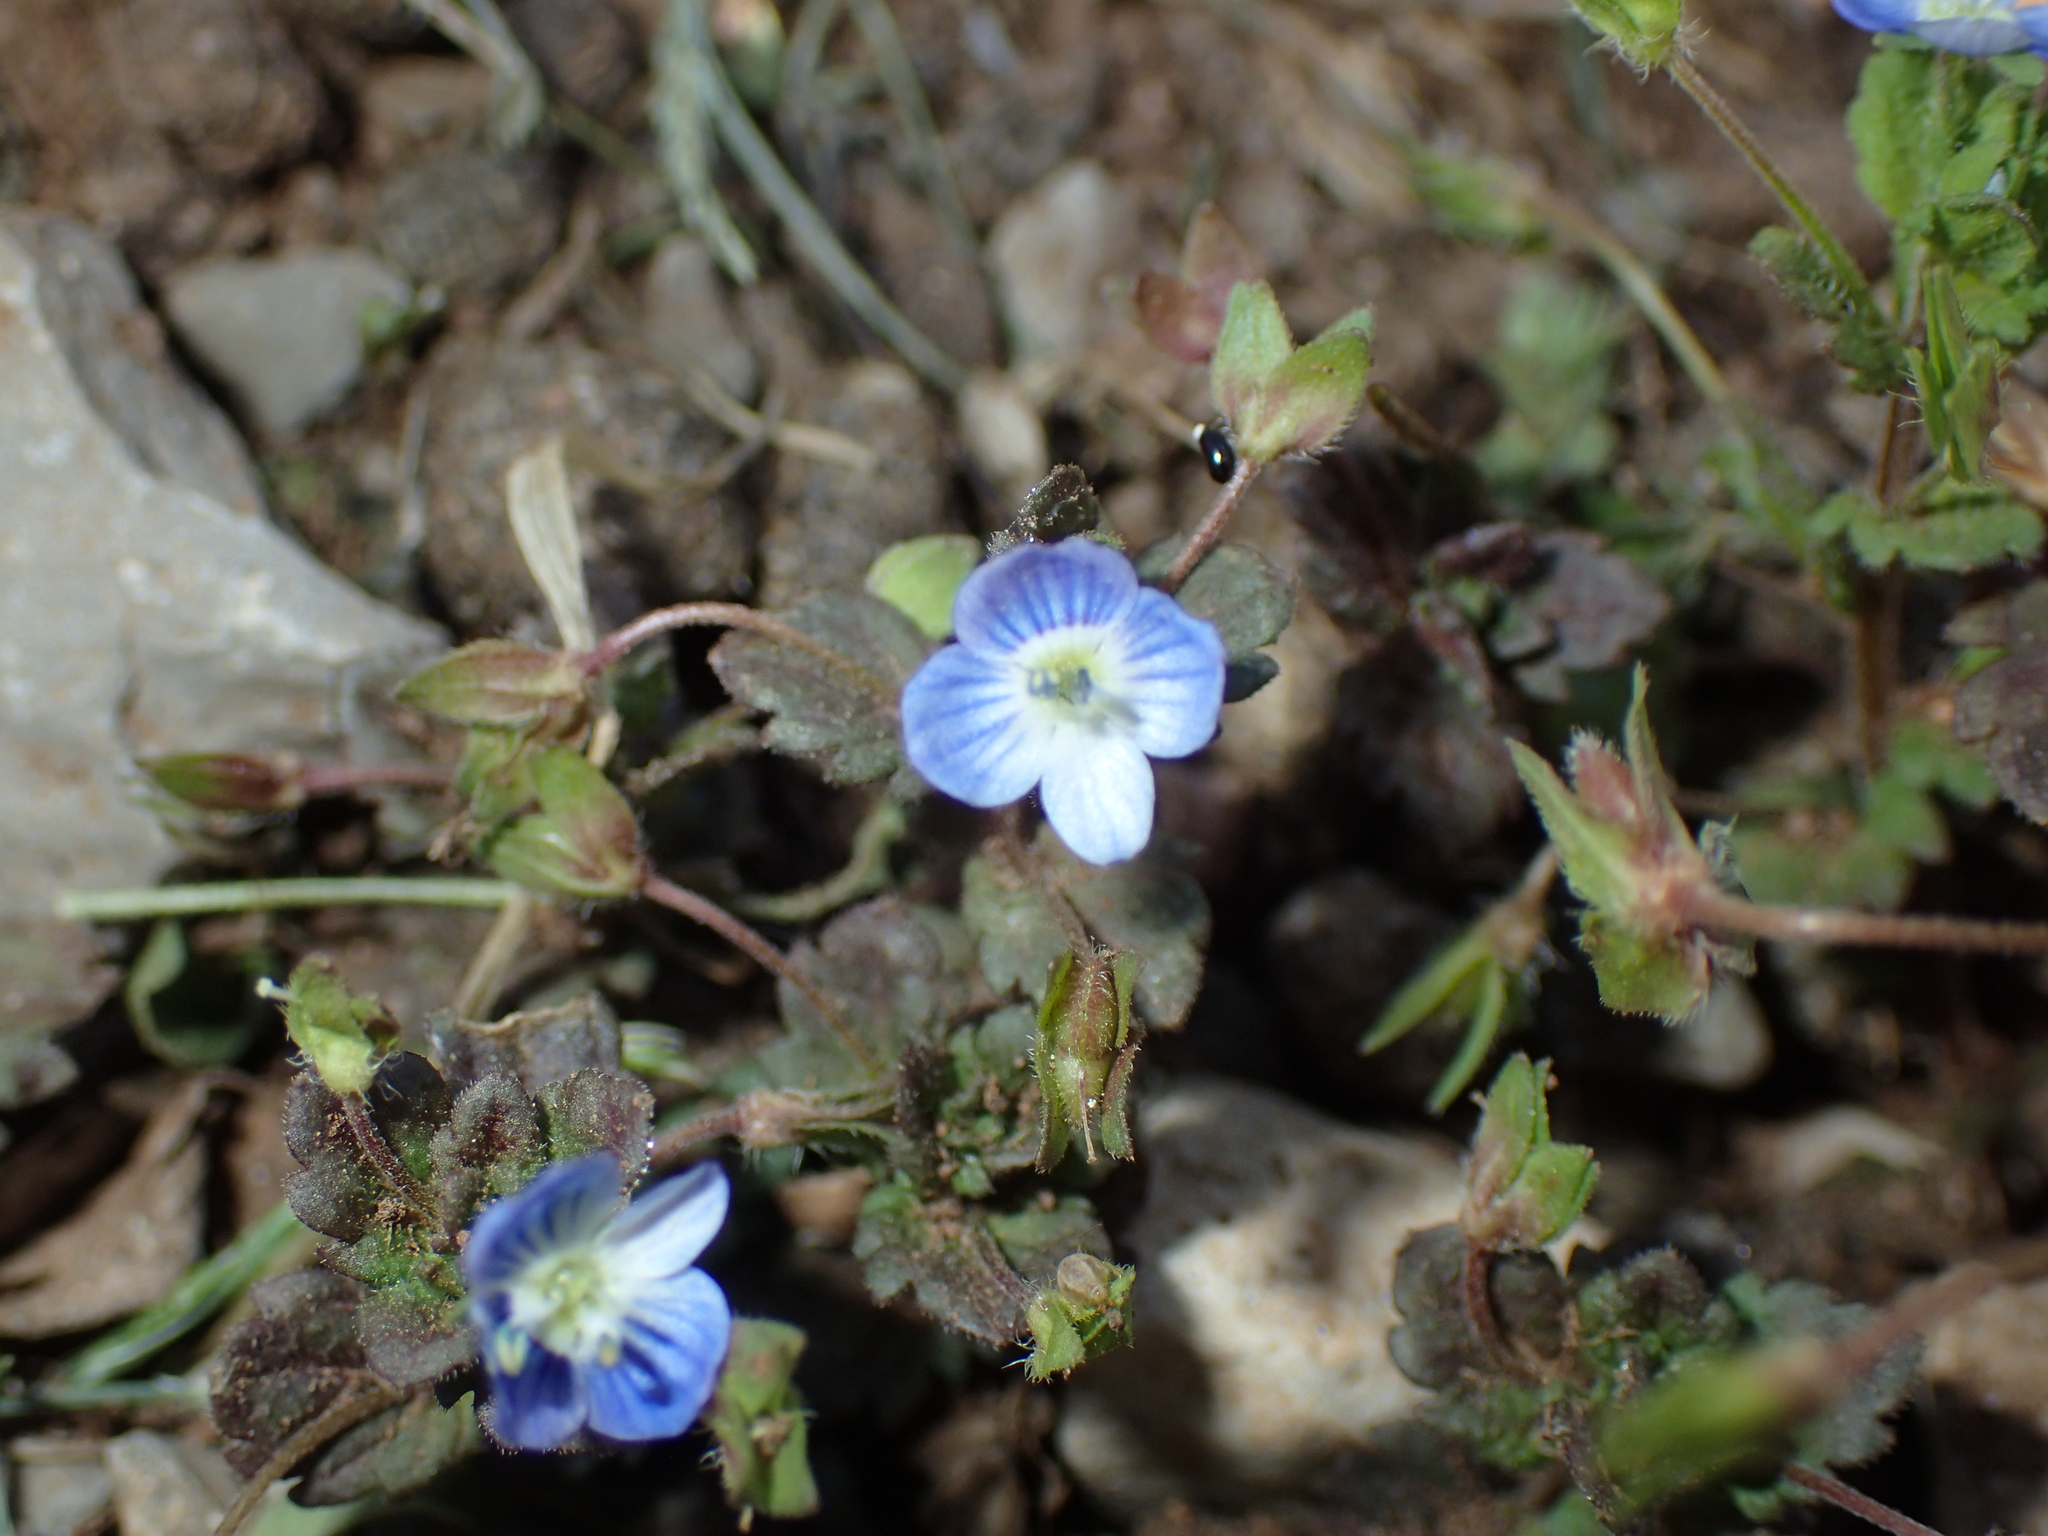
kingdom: Plantae
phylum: Tracheophyta
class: Magnoliopsida
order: Lamiales
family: Plantaginaceae
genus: Veronica
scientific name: Veronica persica
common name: Common field-speedwell
